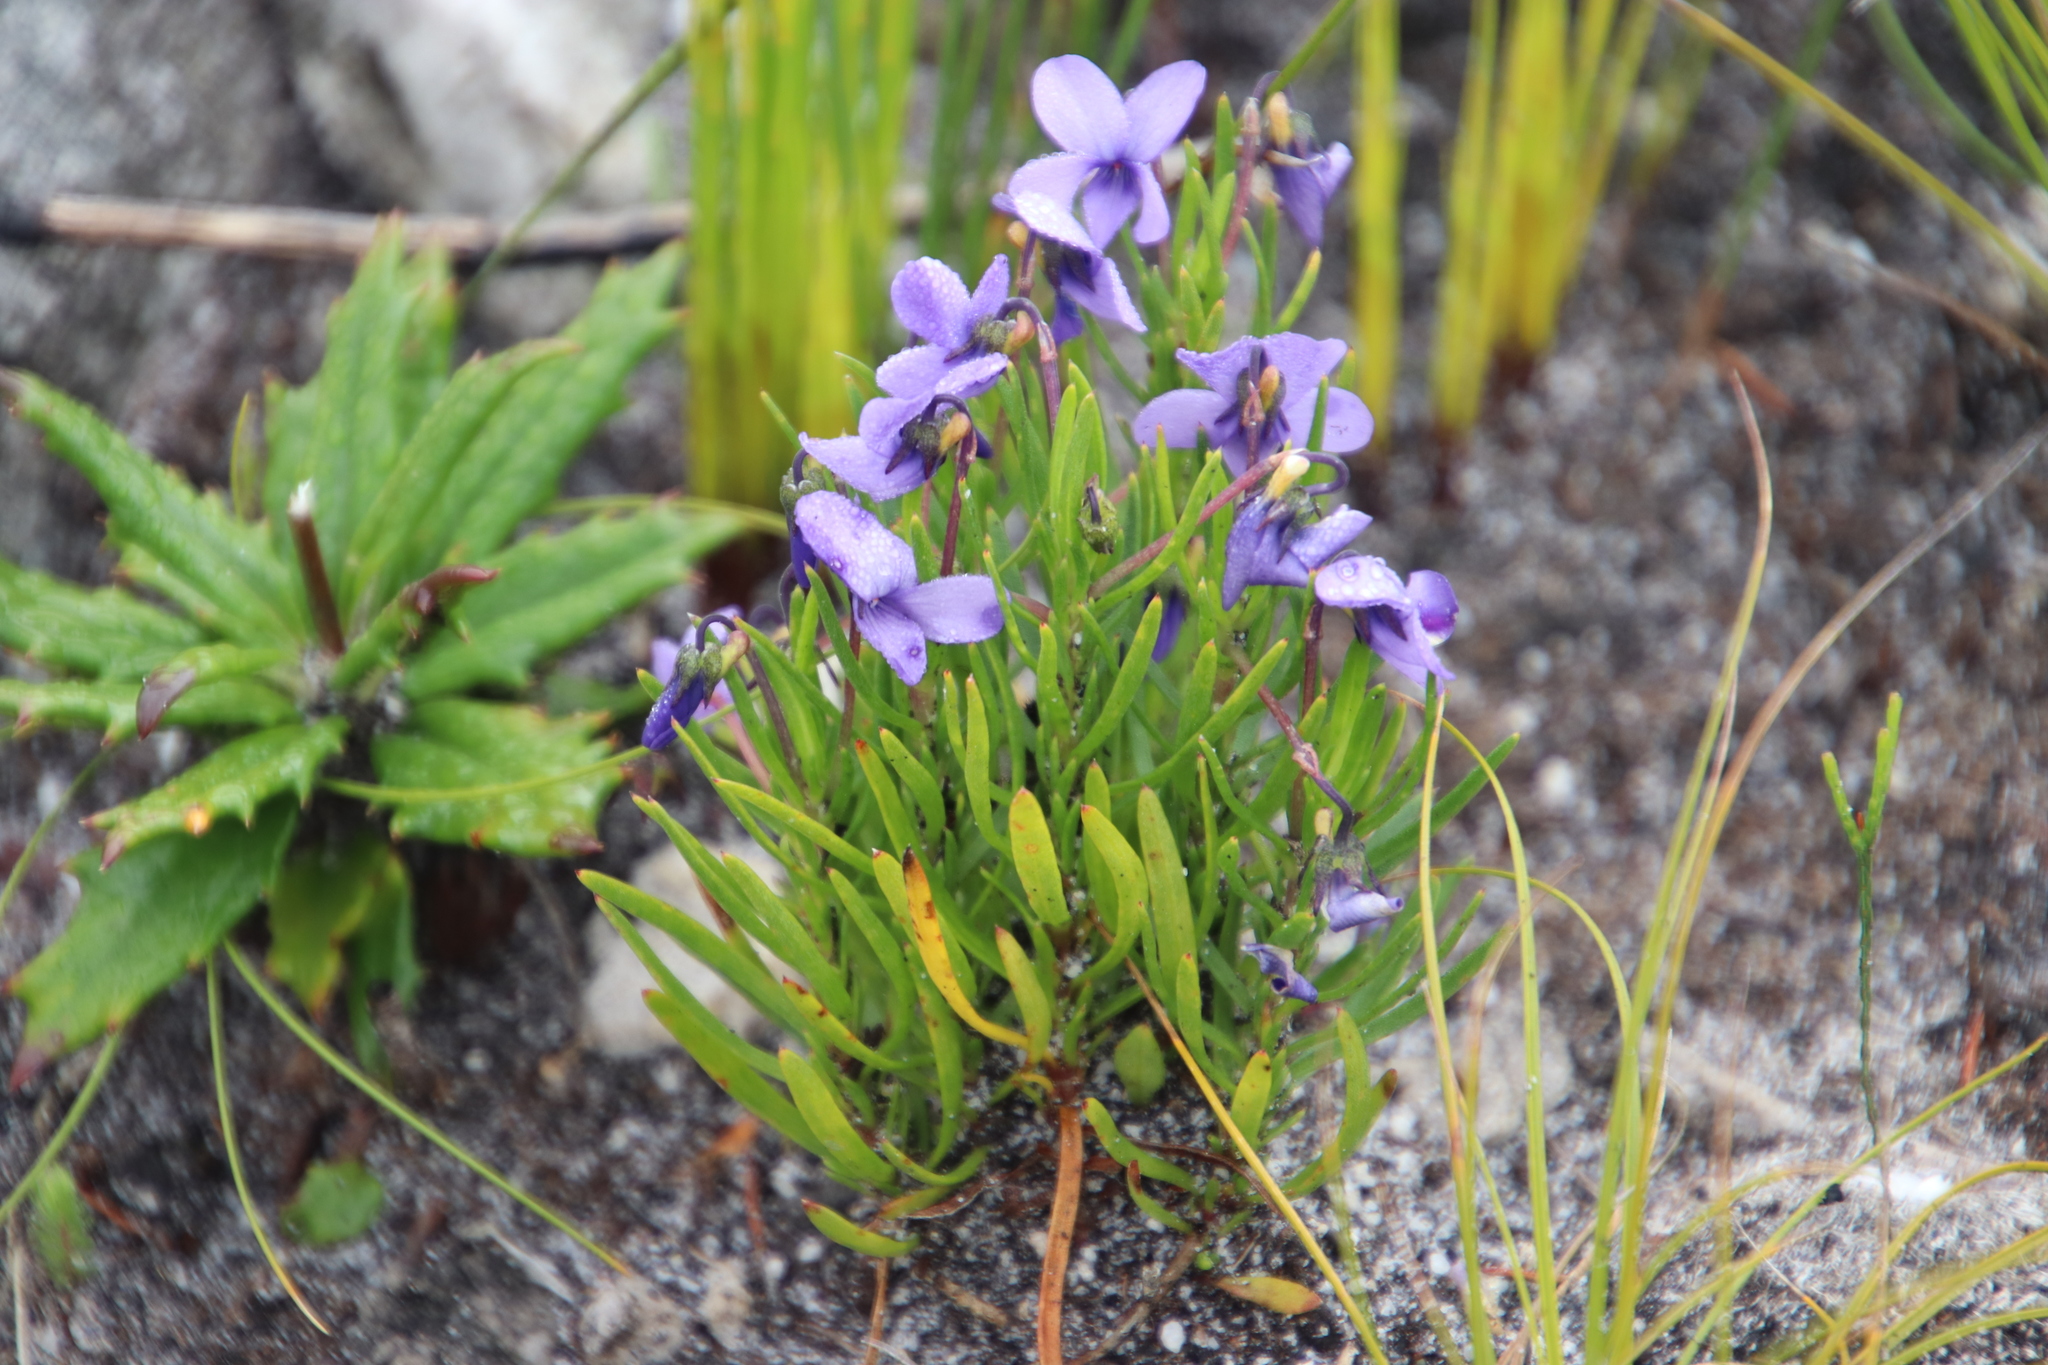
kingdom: Plantae
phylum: Tracheophyta
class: Magnoliopsida
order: Malpighiales
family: Violaceae
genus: Viola
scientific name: Viola decumbens
